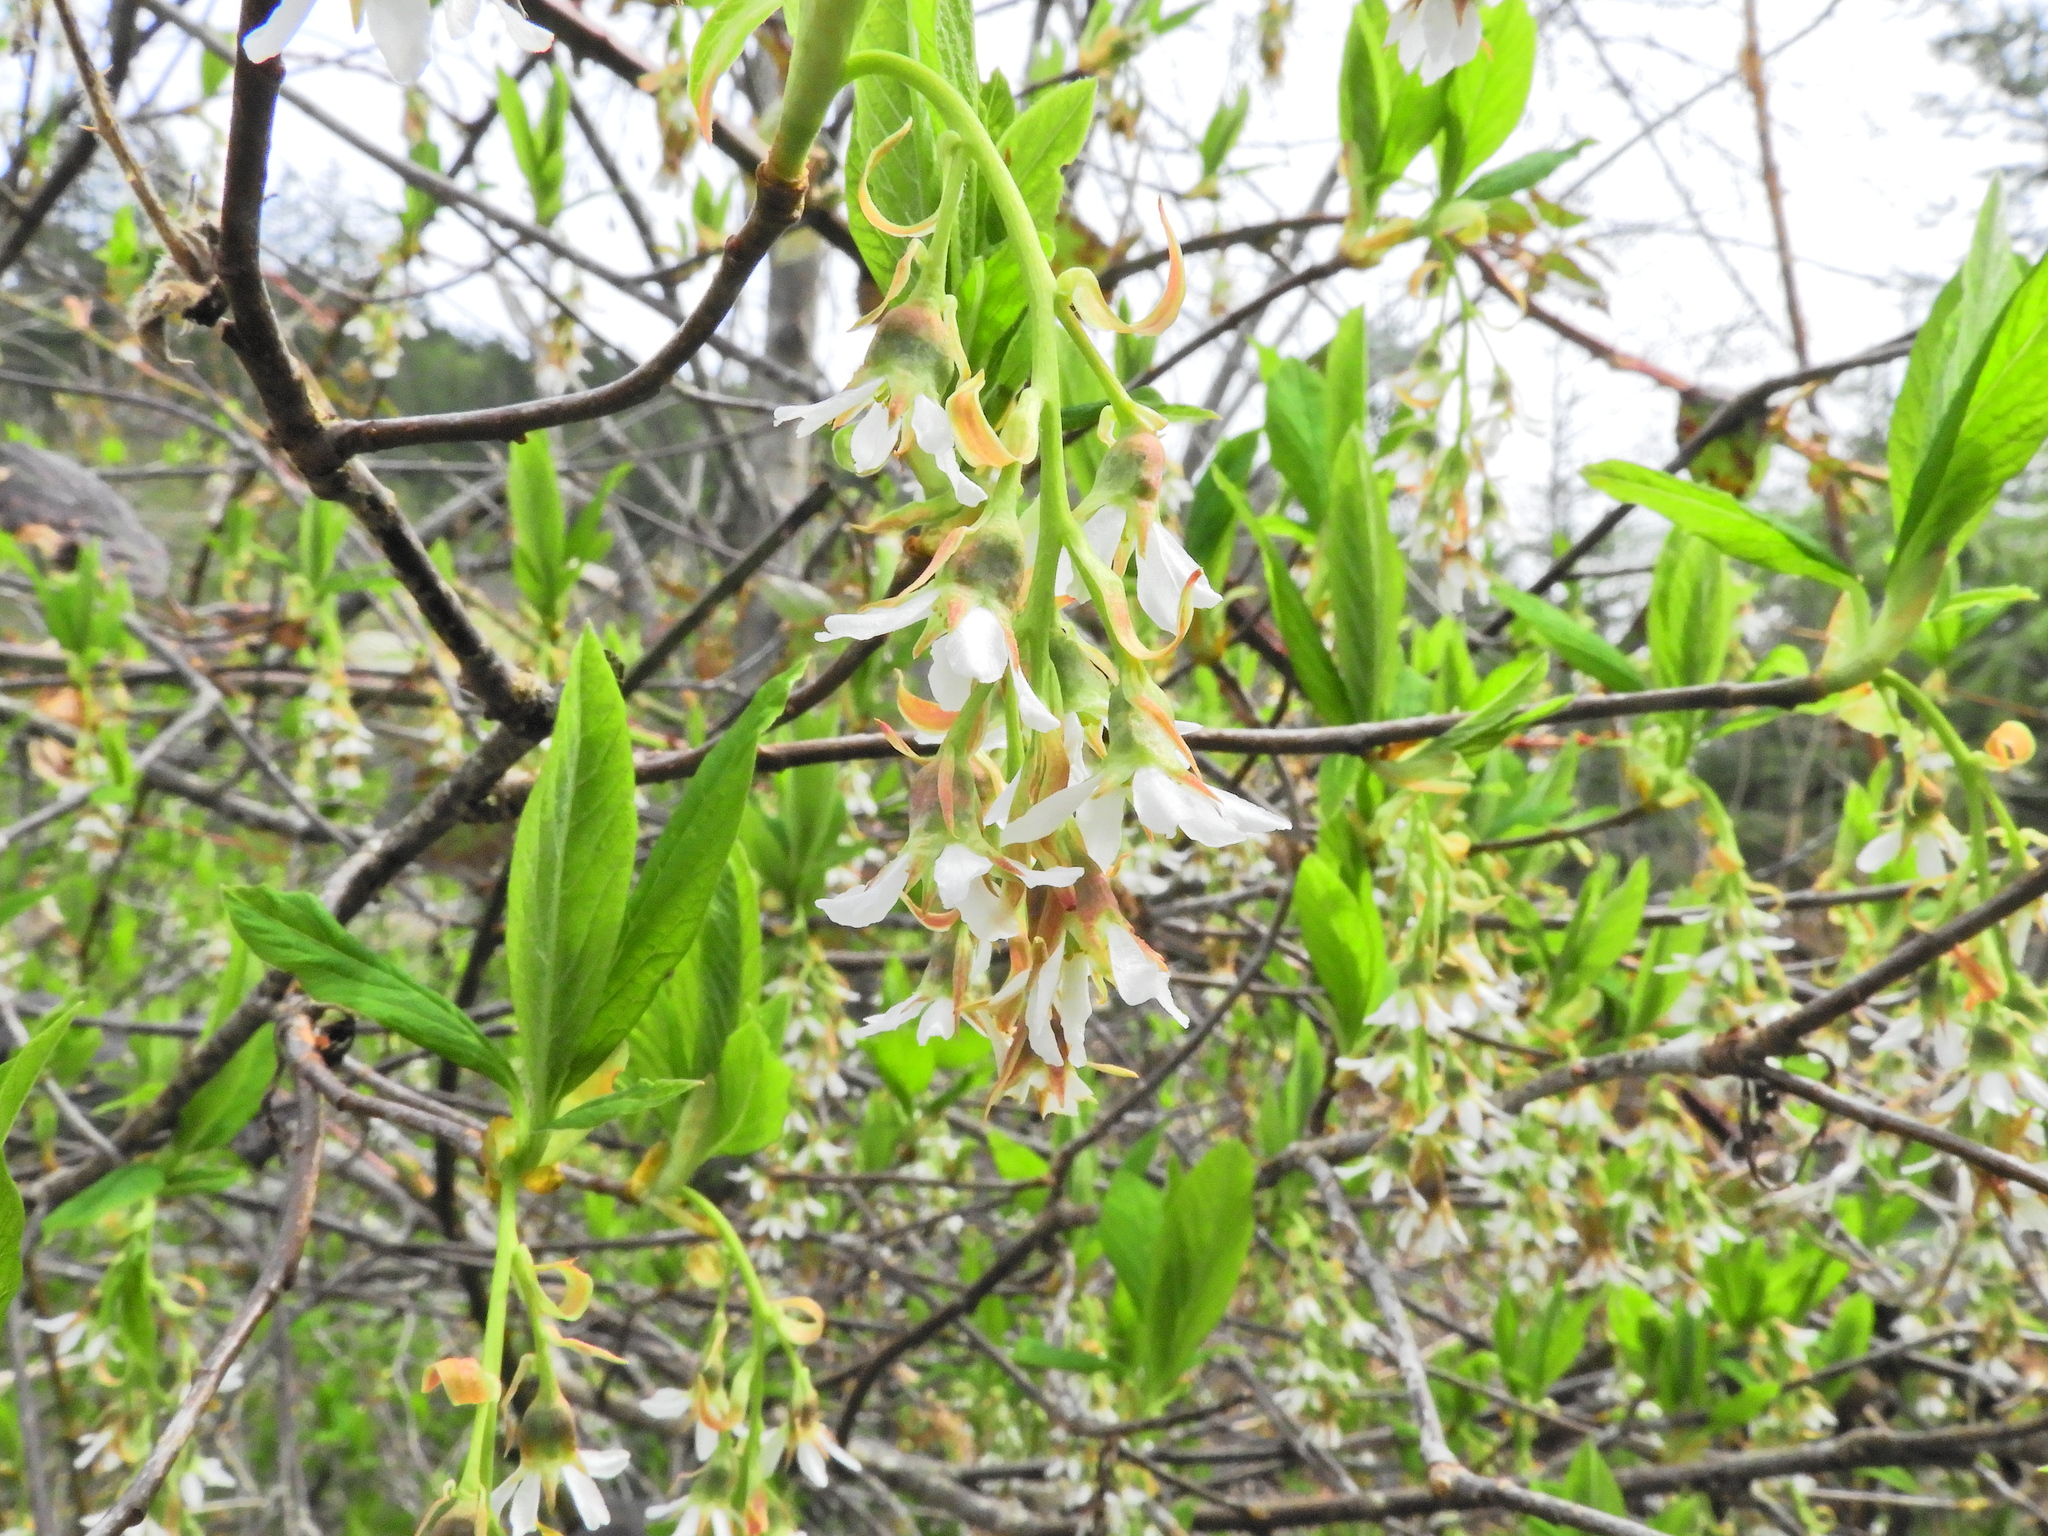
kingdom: Plantae
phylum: Tracheophyta
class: Magnoliopsida
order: Rosales
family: Rosaceae
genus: Oemleria
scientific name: Oemleria cerasiformis
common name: Osoberry
